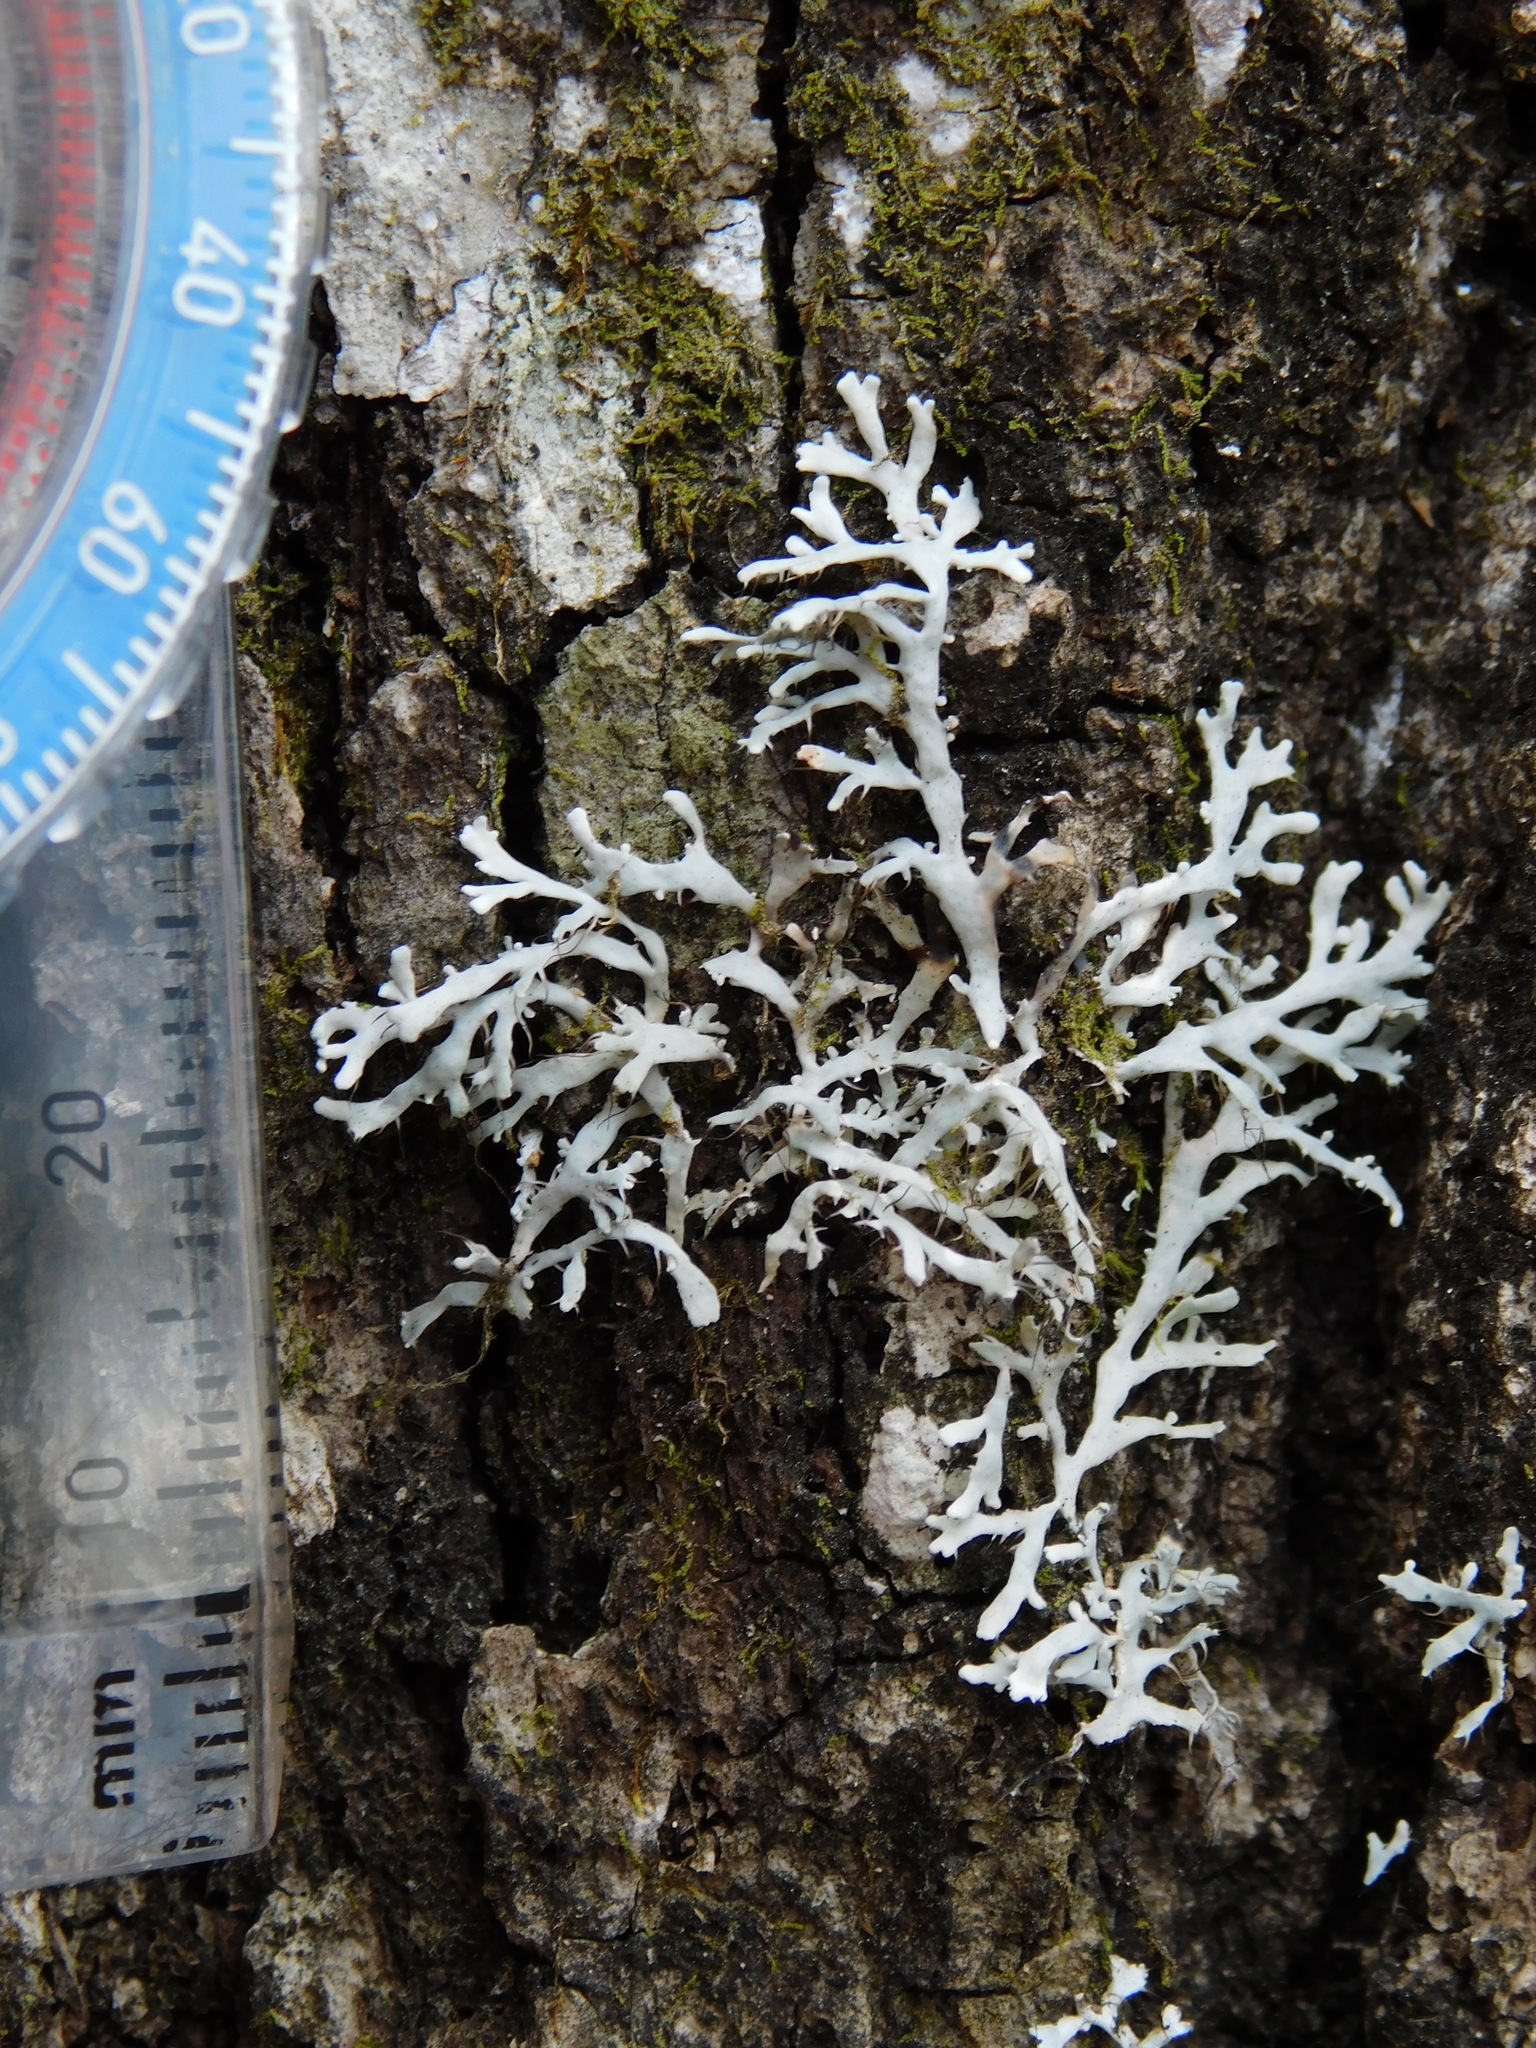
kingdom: Fungi
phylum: Ascomycota
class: Lecanoromycetes
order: Caliciales
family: Physciaceae
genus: Leucodermia
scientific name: Leucodermia appalachensis
